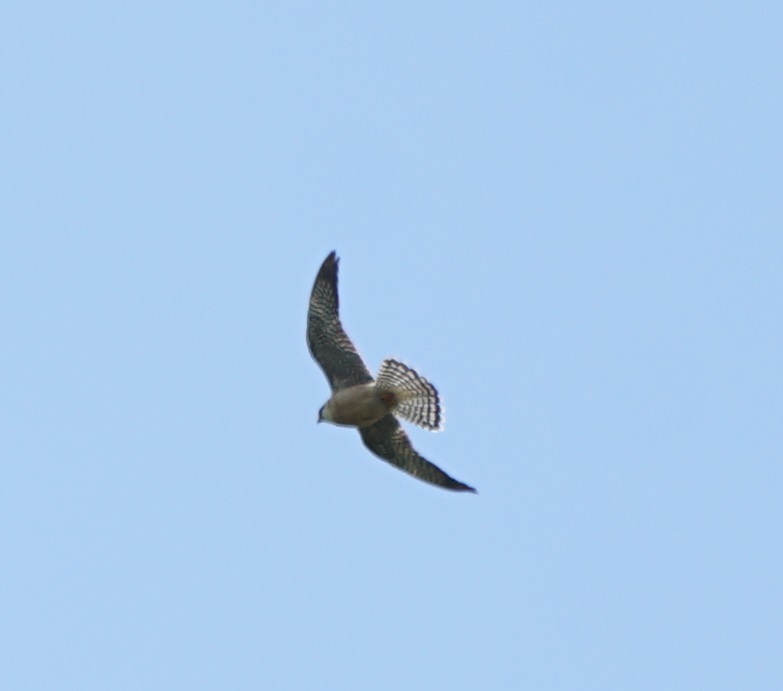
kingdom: Animalia
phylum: Chordata
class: Aves
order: Falconiformes
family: Falconidae
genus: Falco
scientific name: Falco vespertinus
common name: Red-footed falcon
